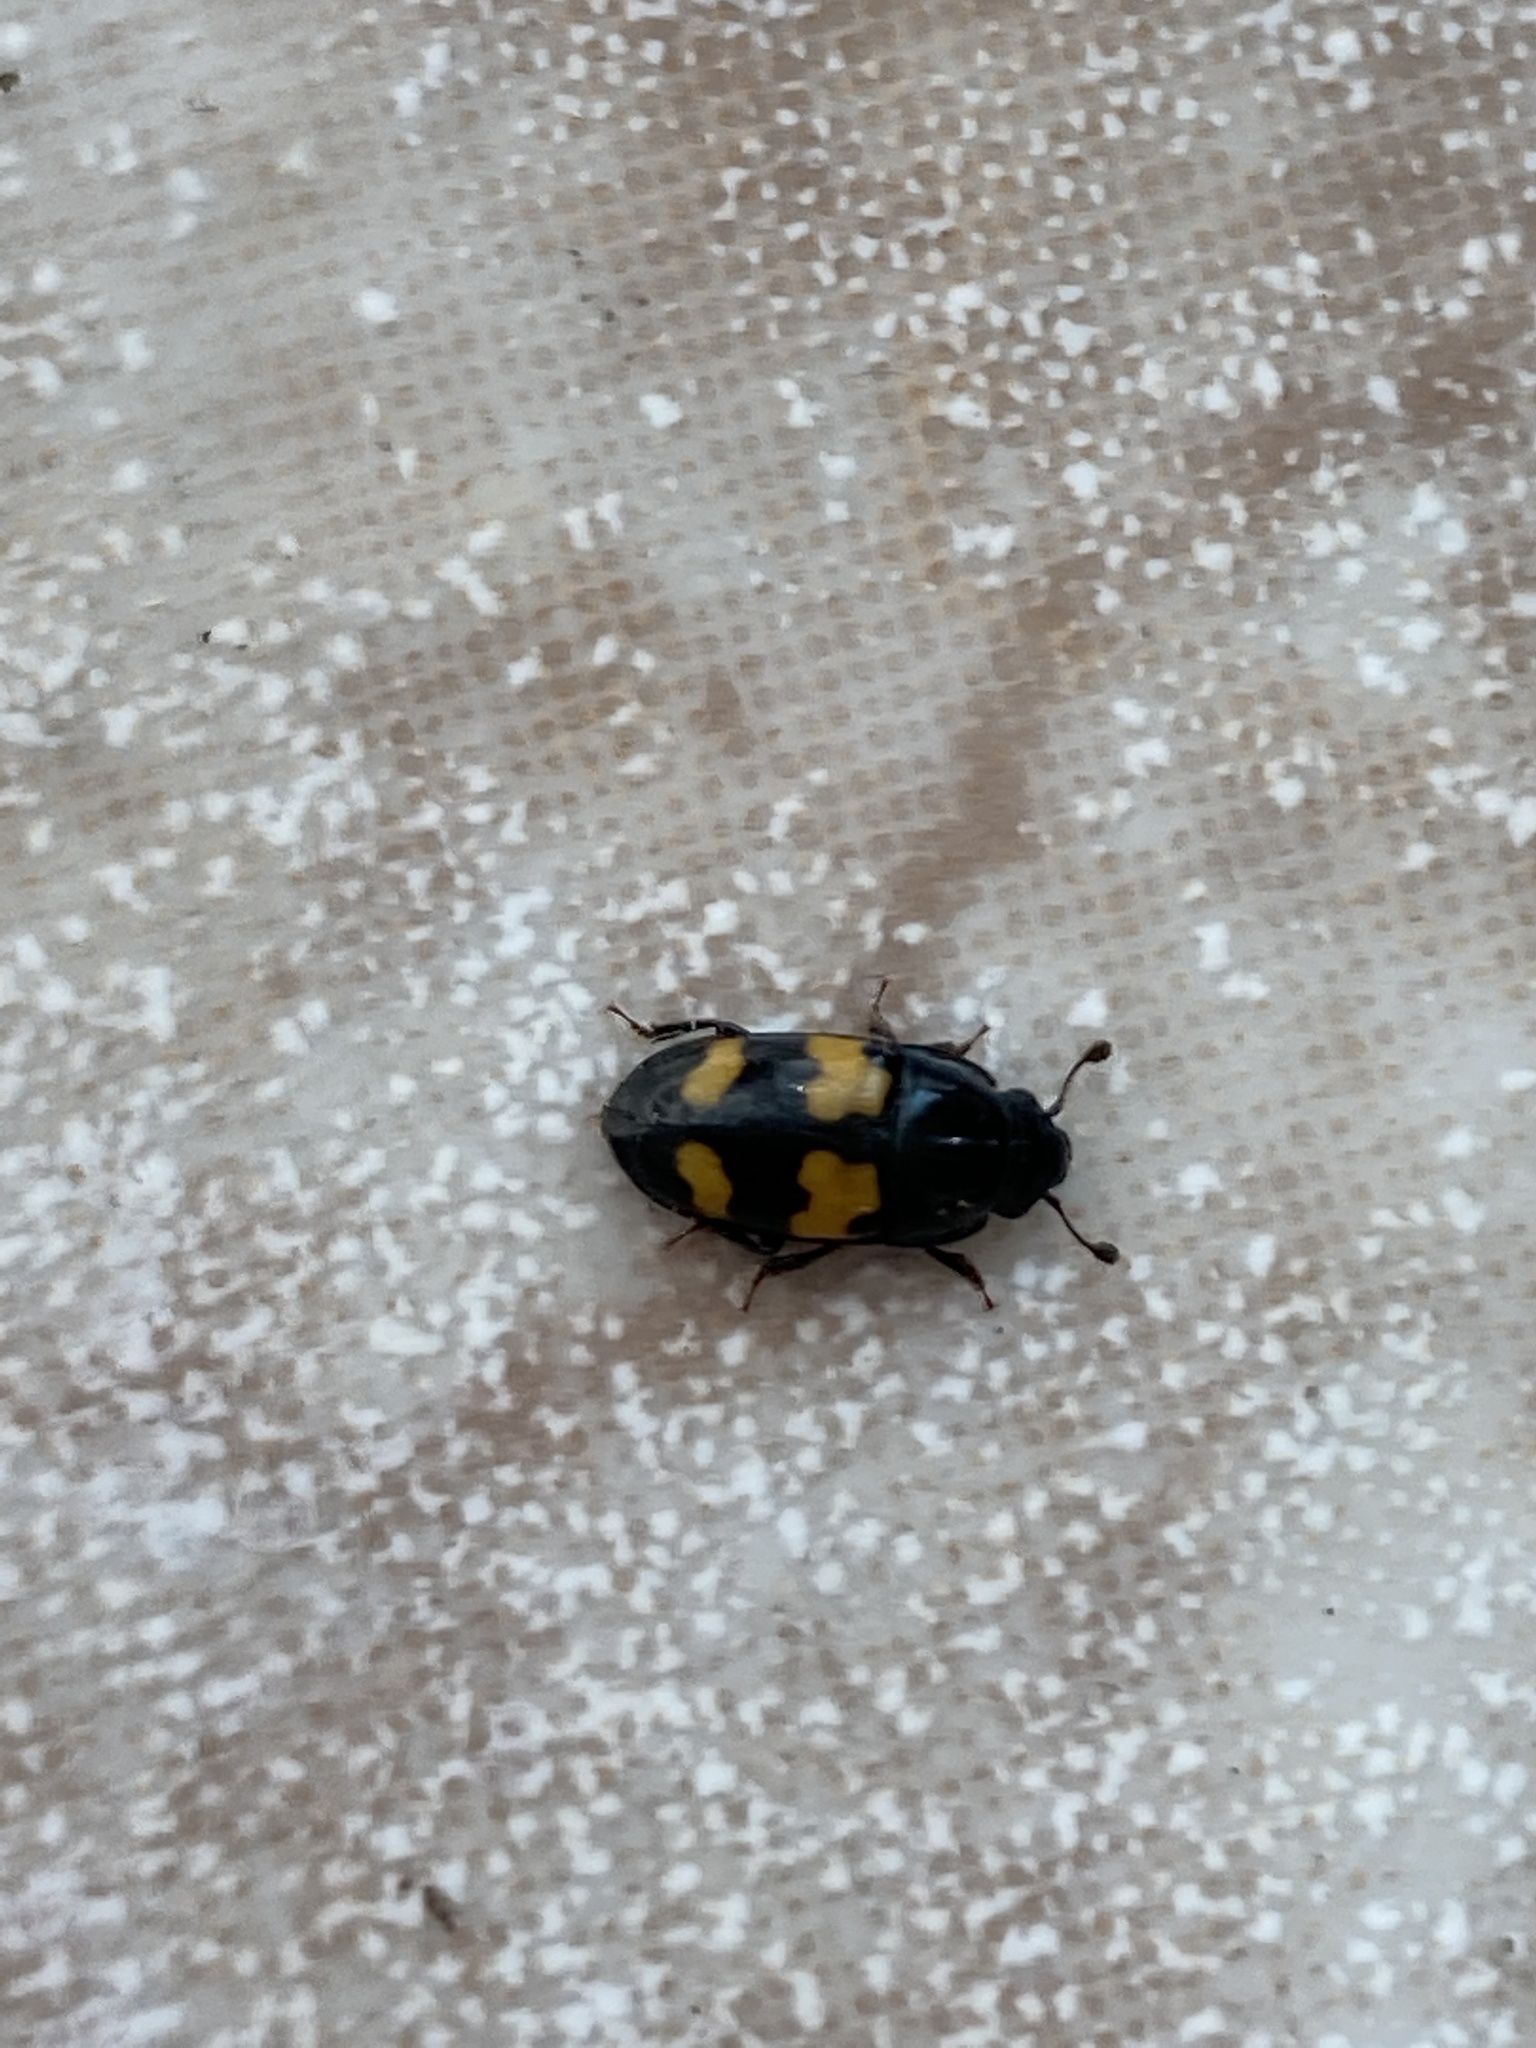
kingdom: Animalia
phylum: Arthropoda
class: Insecta
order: Coleoptera
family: Nitidulidae
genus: Glischrochilus
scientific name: Glischrochilus fasciatus
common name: Picnic beetle
